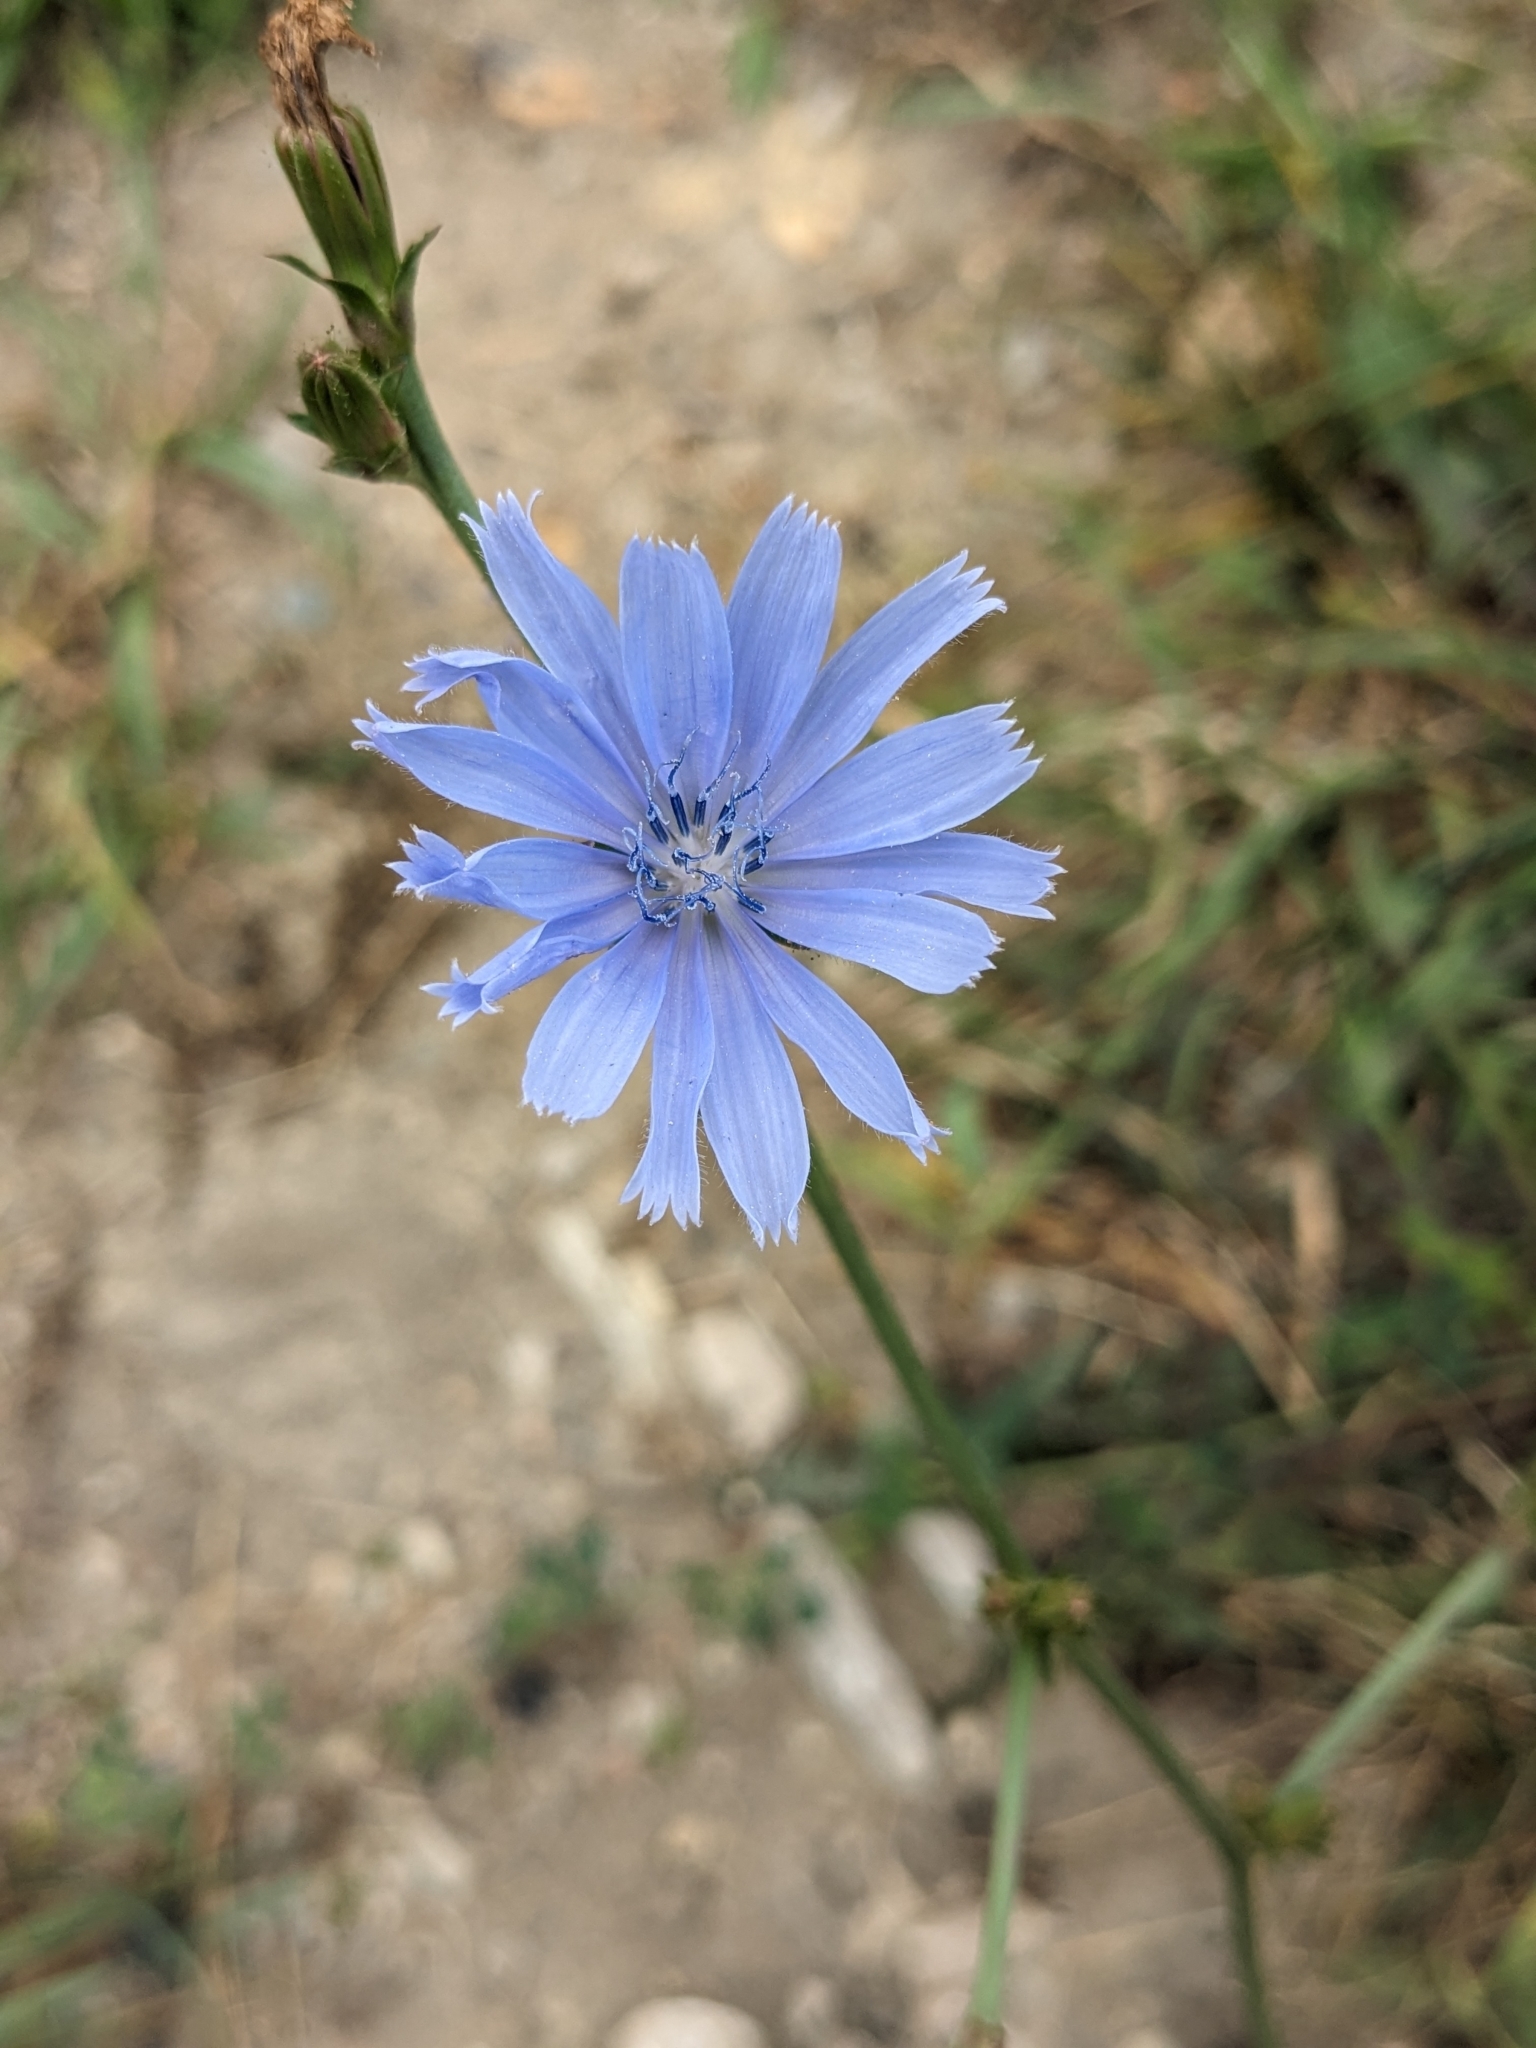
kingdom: Plantae
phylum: Tracheophyta
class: Magnoliopsida
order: Asterales
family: Asteraceae
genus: Cichorium
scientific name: Cichorium intybus
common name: Chicory
